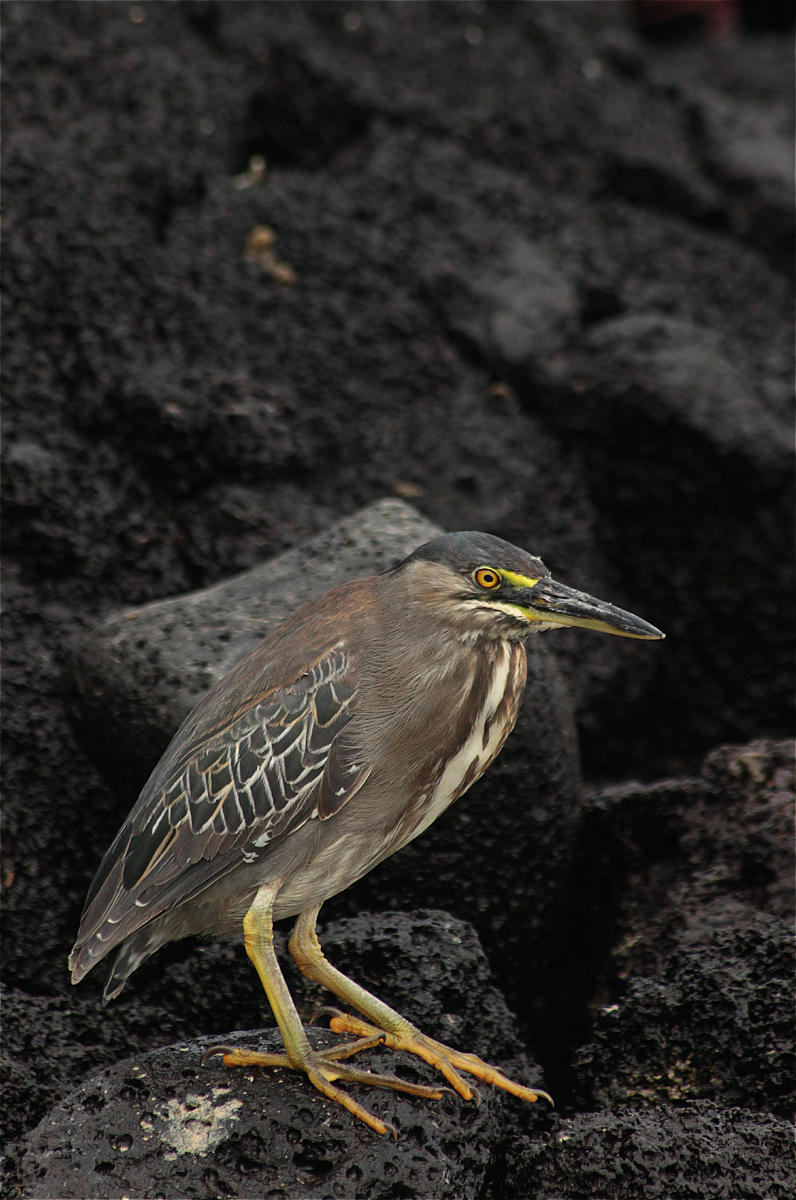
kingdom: Animalia
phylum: Chordata
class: Aves
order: Pelecaniformes
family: Ardeidae
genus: Butorides
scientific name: Butorides striata
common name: Striated heron
